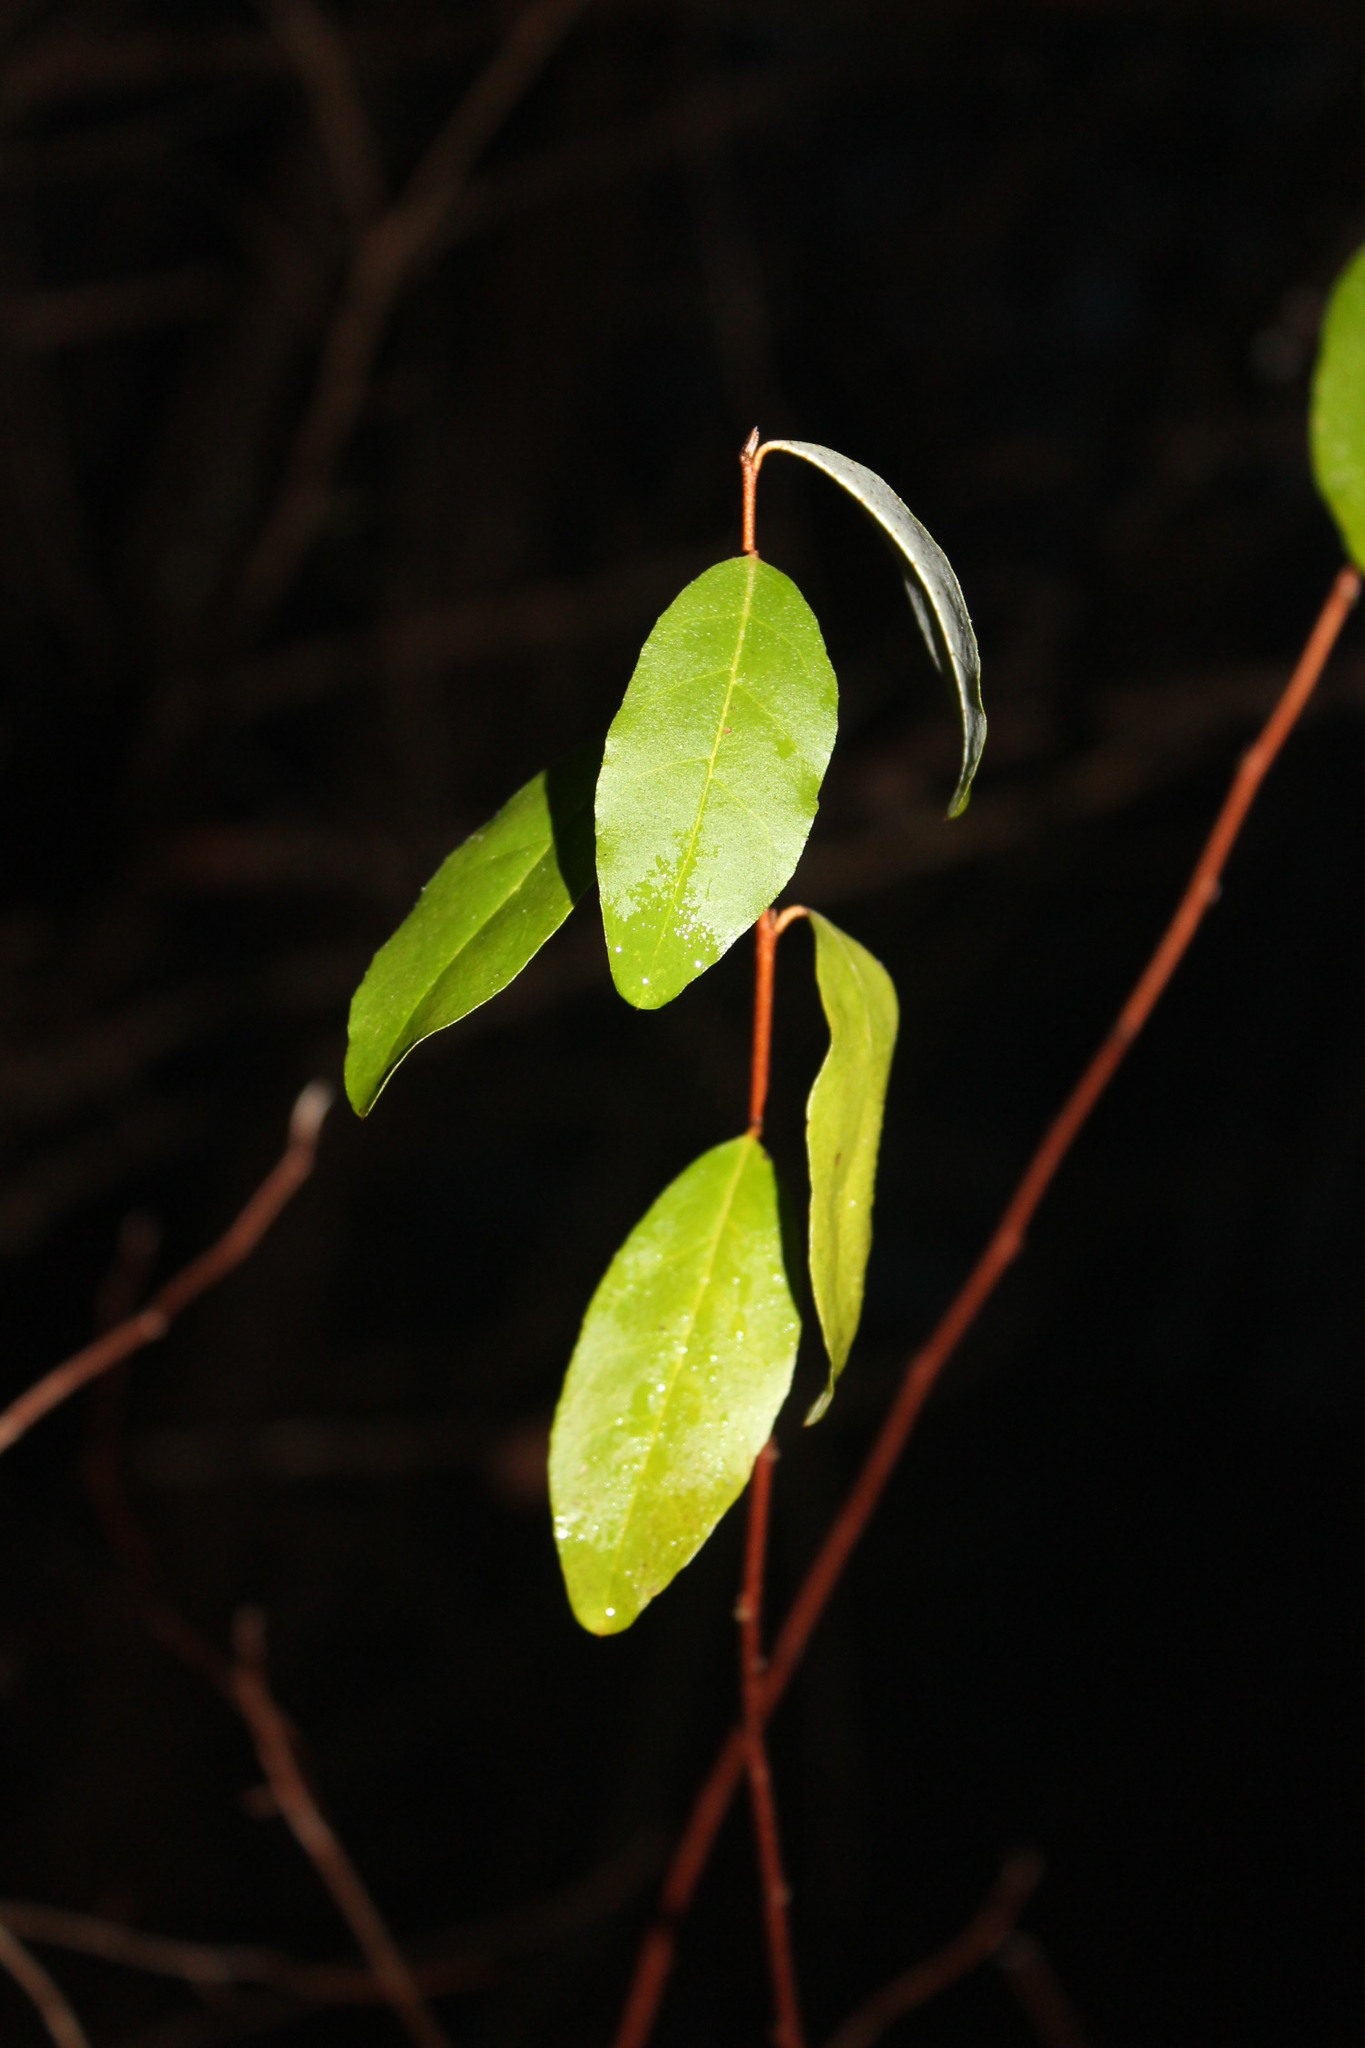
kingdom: Plantae
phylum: Tracheophyta
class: Magnoliopsida
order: Rosales
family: Elaeagnaceae
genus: Elaeagnus
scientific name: Elaeagnus umbellata
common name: Autumn olive
